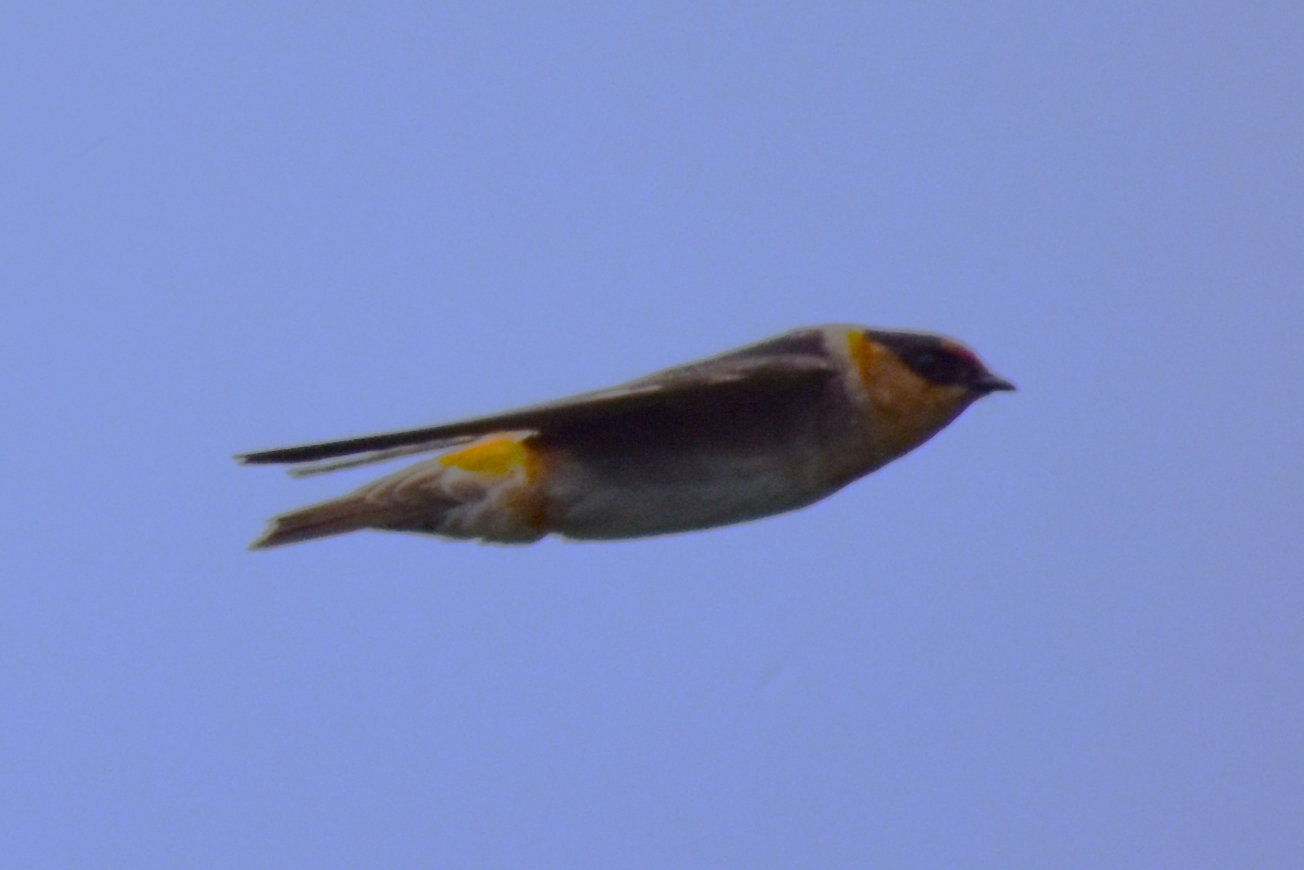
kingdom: Animalia
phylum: Chordata
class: Aves
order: Passeriformes
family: Hirundinidae
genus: Petrochelidon
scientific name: Petrochelidon fulva
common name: Cave swallow
